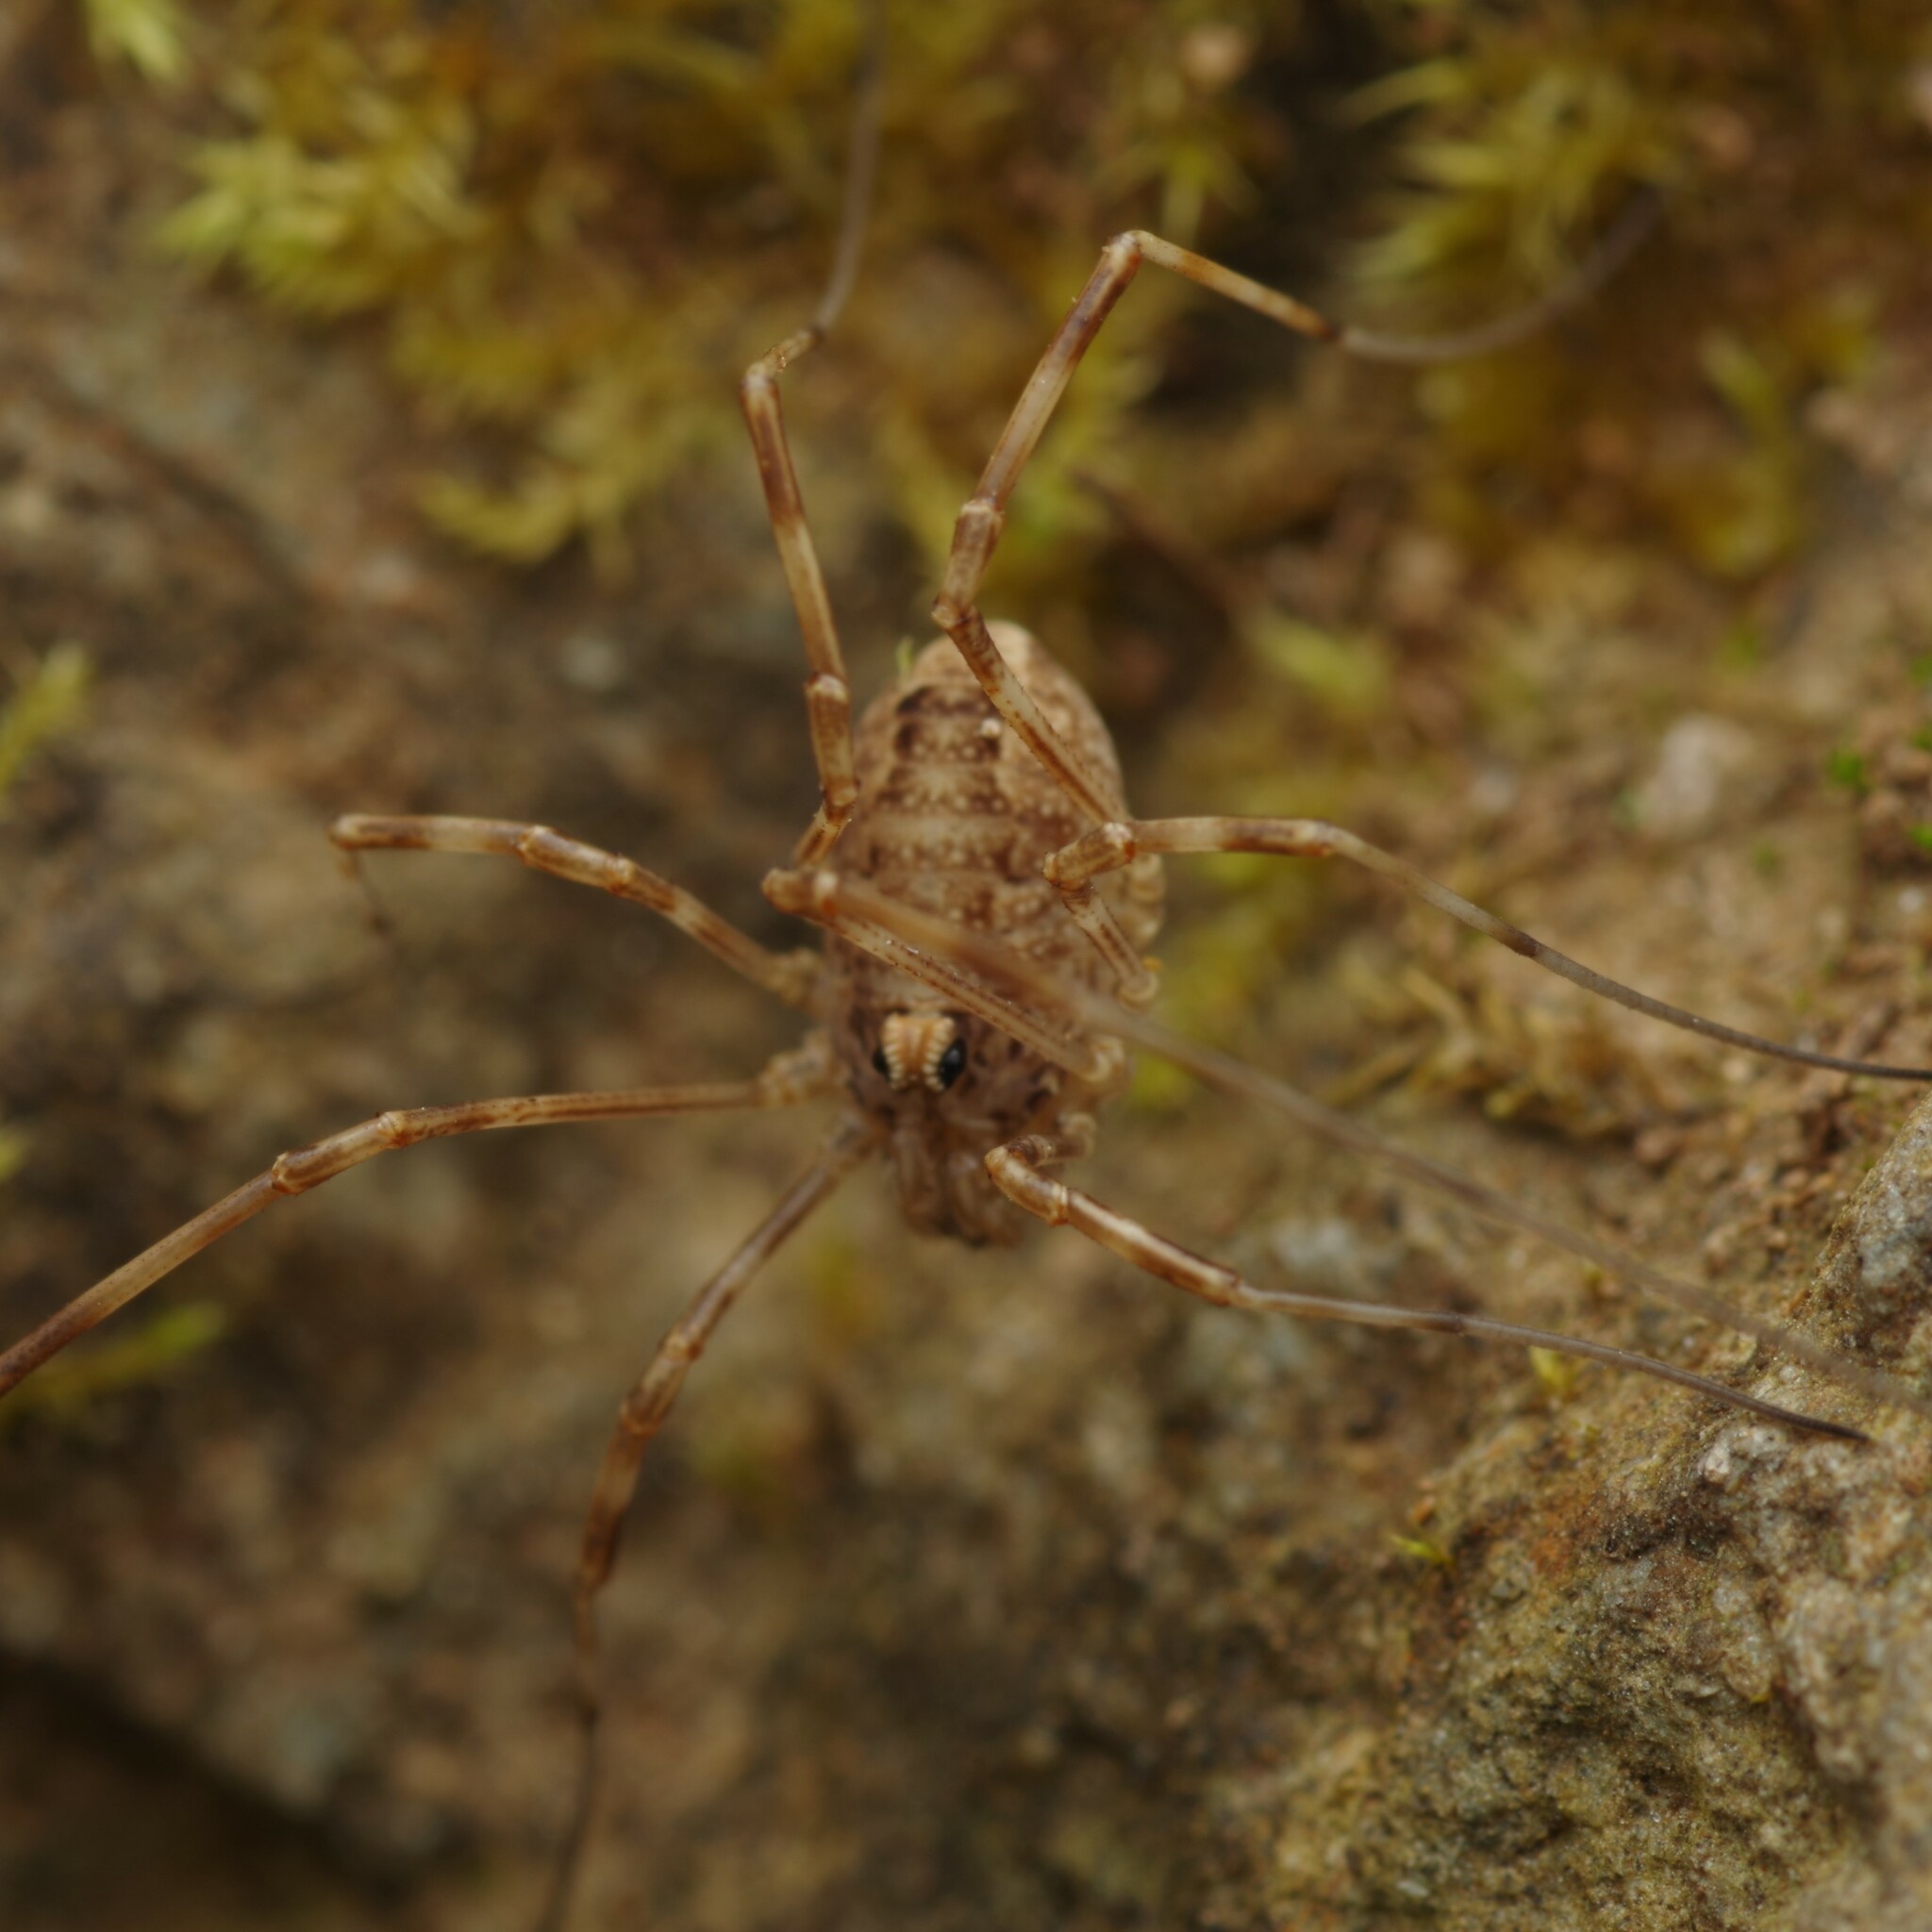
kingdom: Animalia
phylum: Arthropoda
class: Arachnida
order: Opiliones
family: Phalangiidae
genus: Rilaena
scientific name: Rilaena triangularis
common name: Spring harvestman
